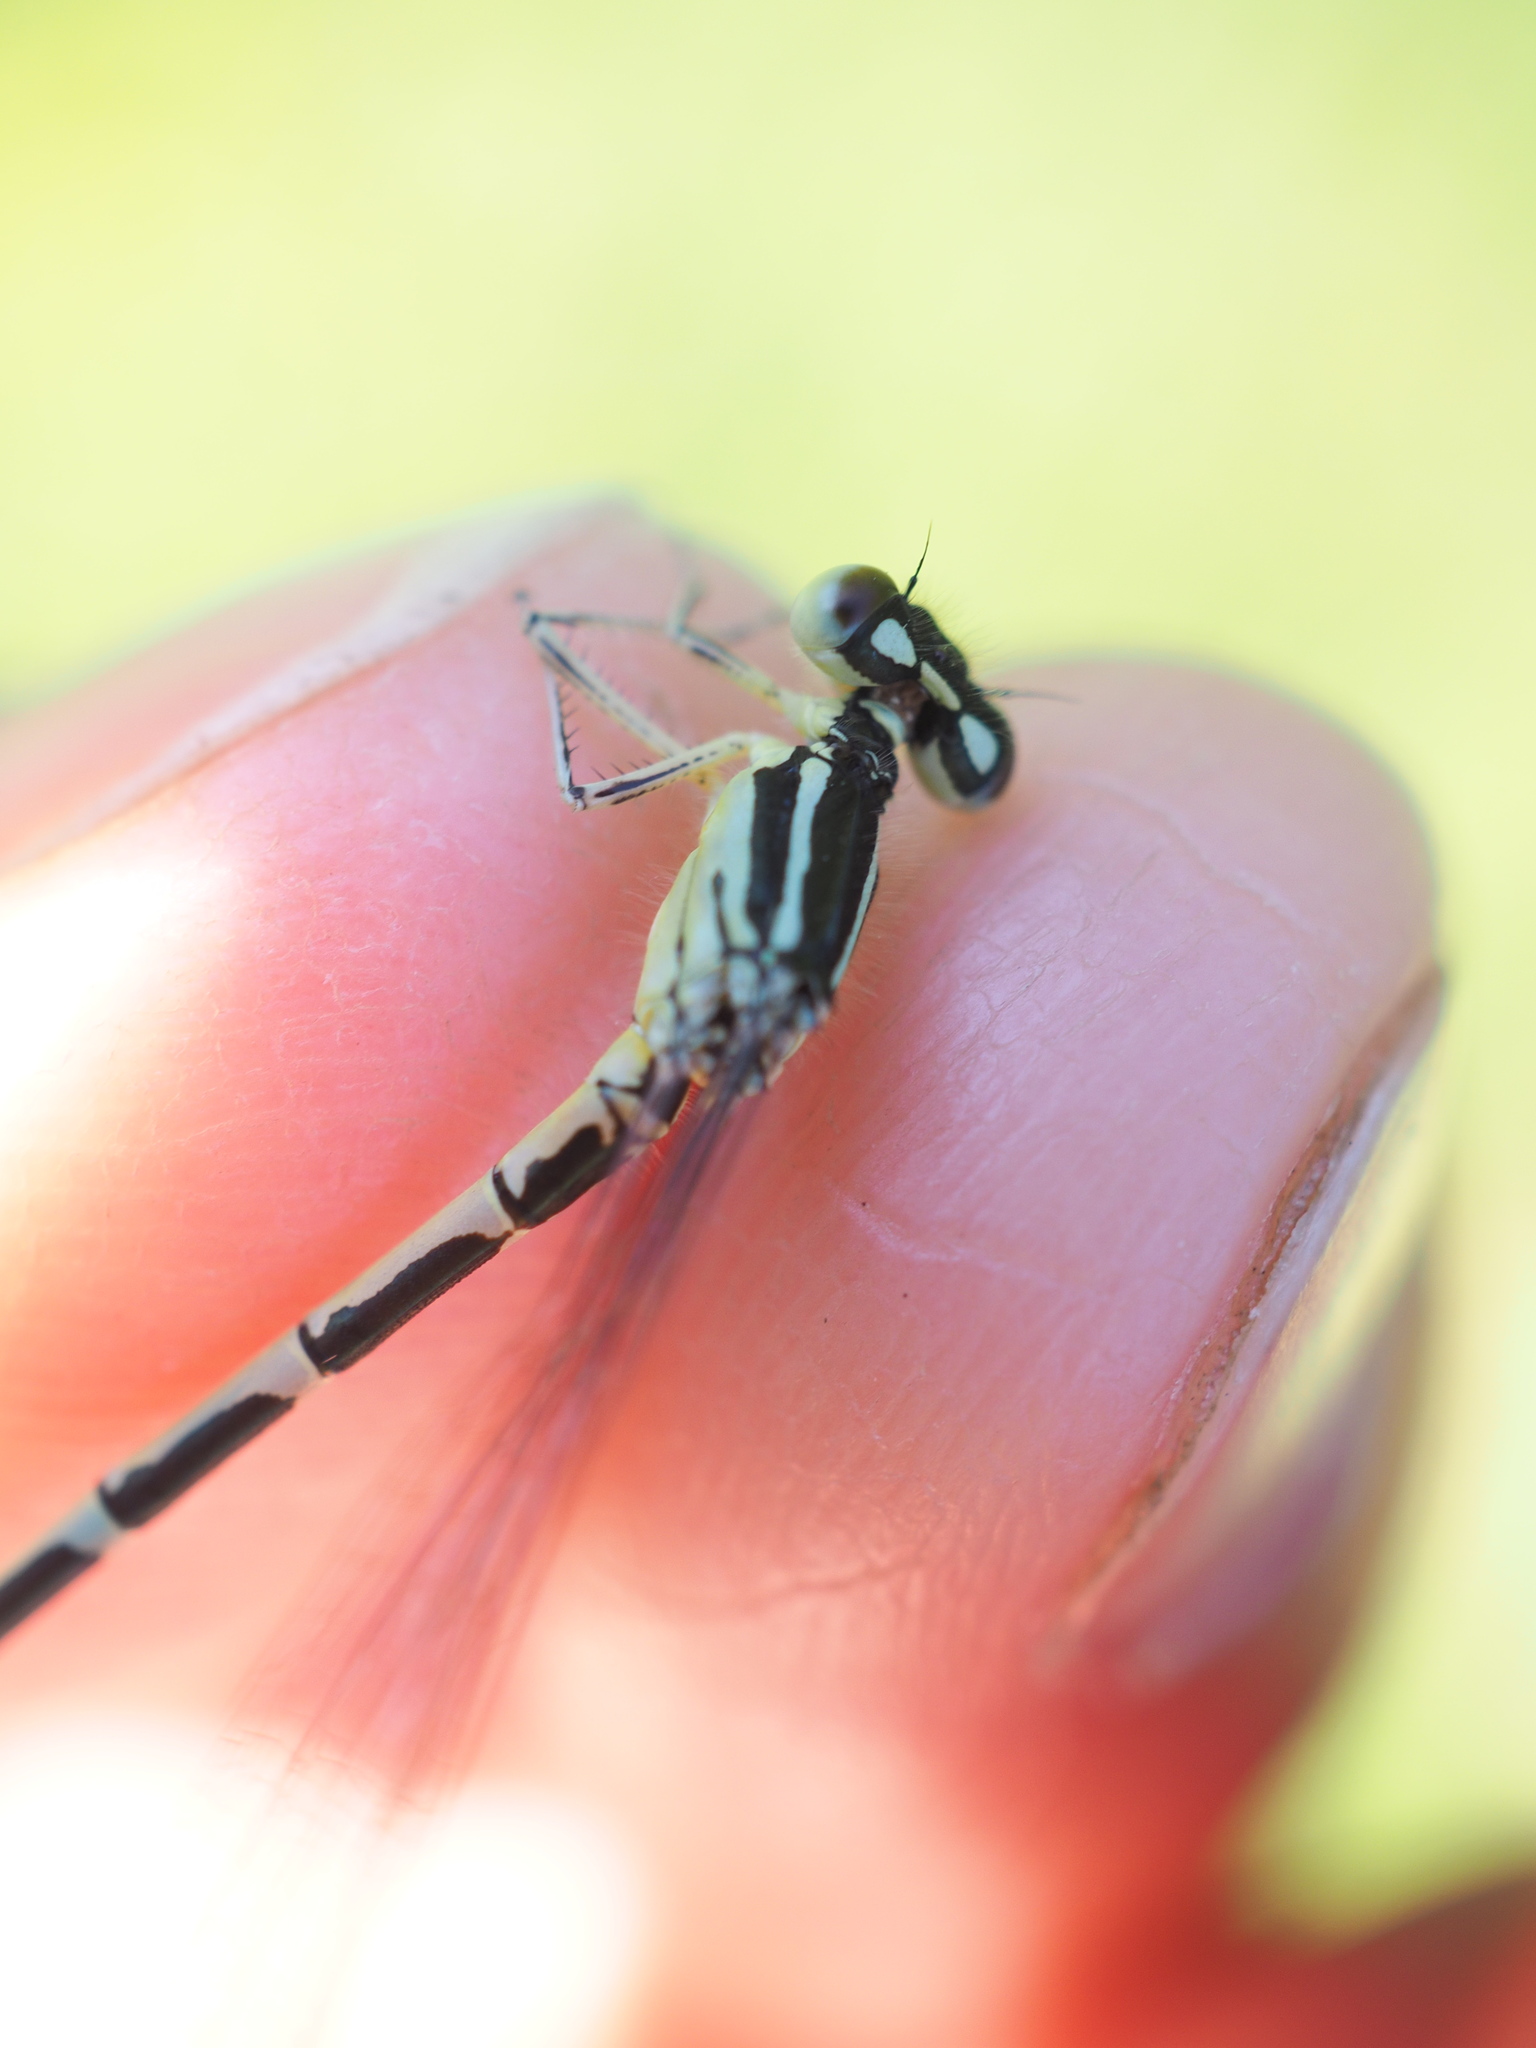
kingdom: Animalia
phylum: Arthropoda
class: Insecta
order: Odonata
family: Coenagrionidae
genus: Coenagrion
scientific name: Coenagrion scitulum
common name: Dainty bluet
